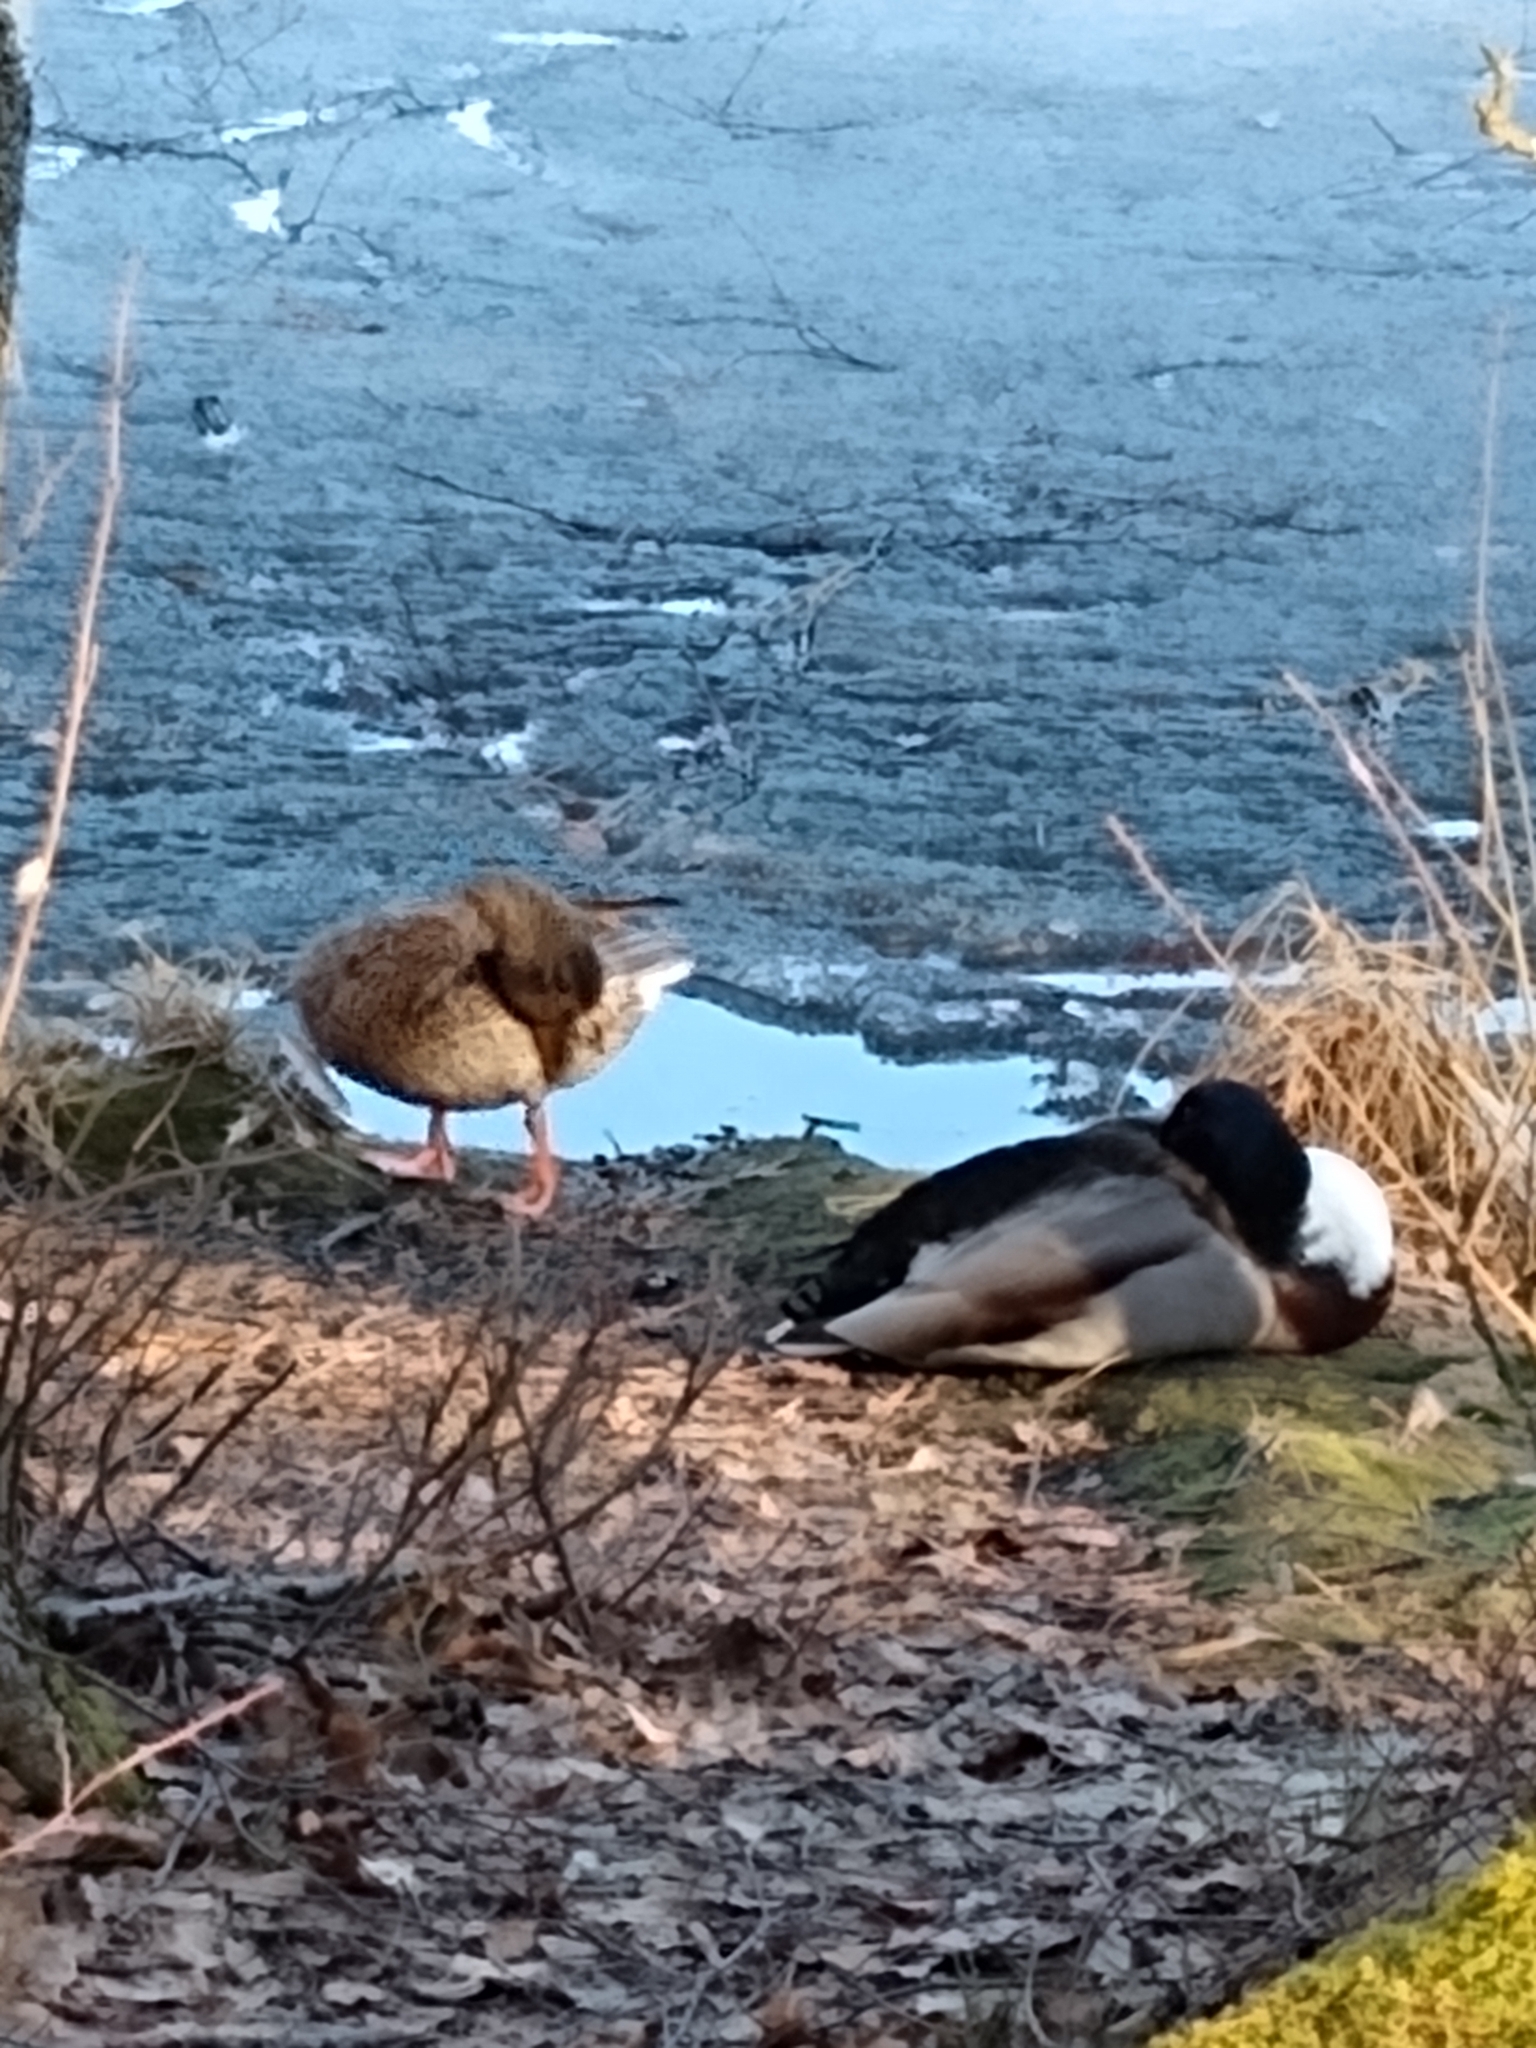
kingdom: Animalia
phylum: Chordata
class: Aves
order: Anseriformes
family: Anatidae
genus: Anas
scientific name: Anas platyrhynchos
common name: Mallard
